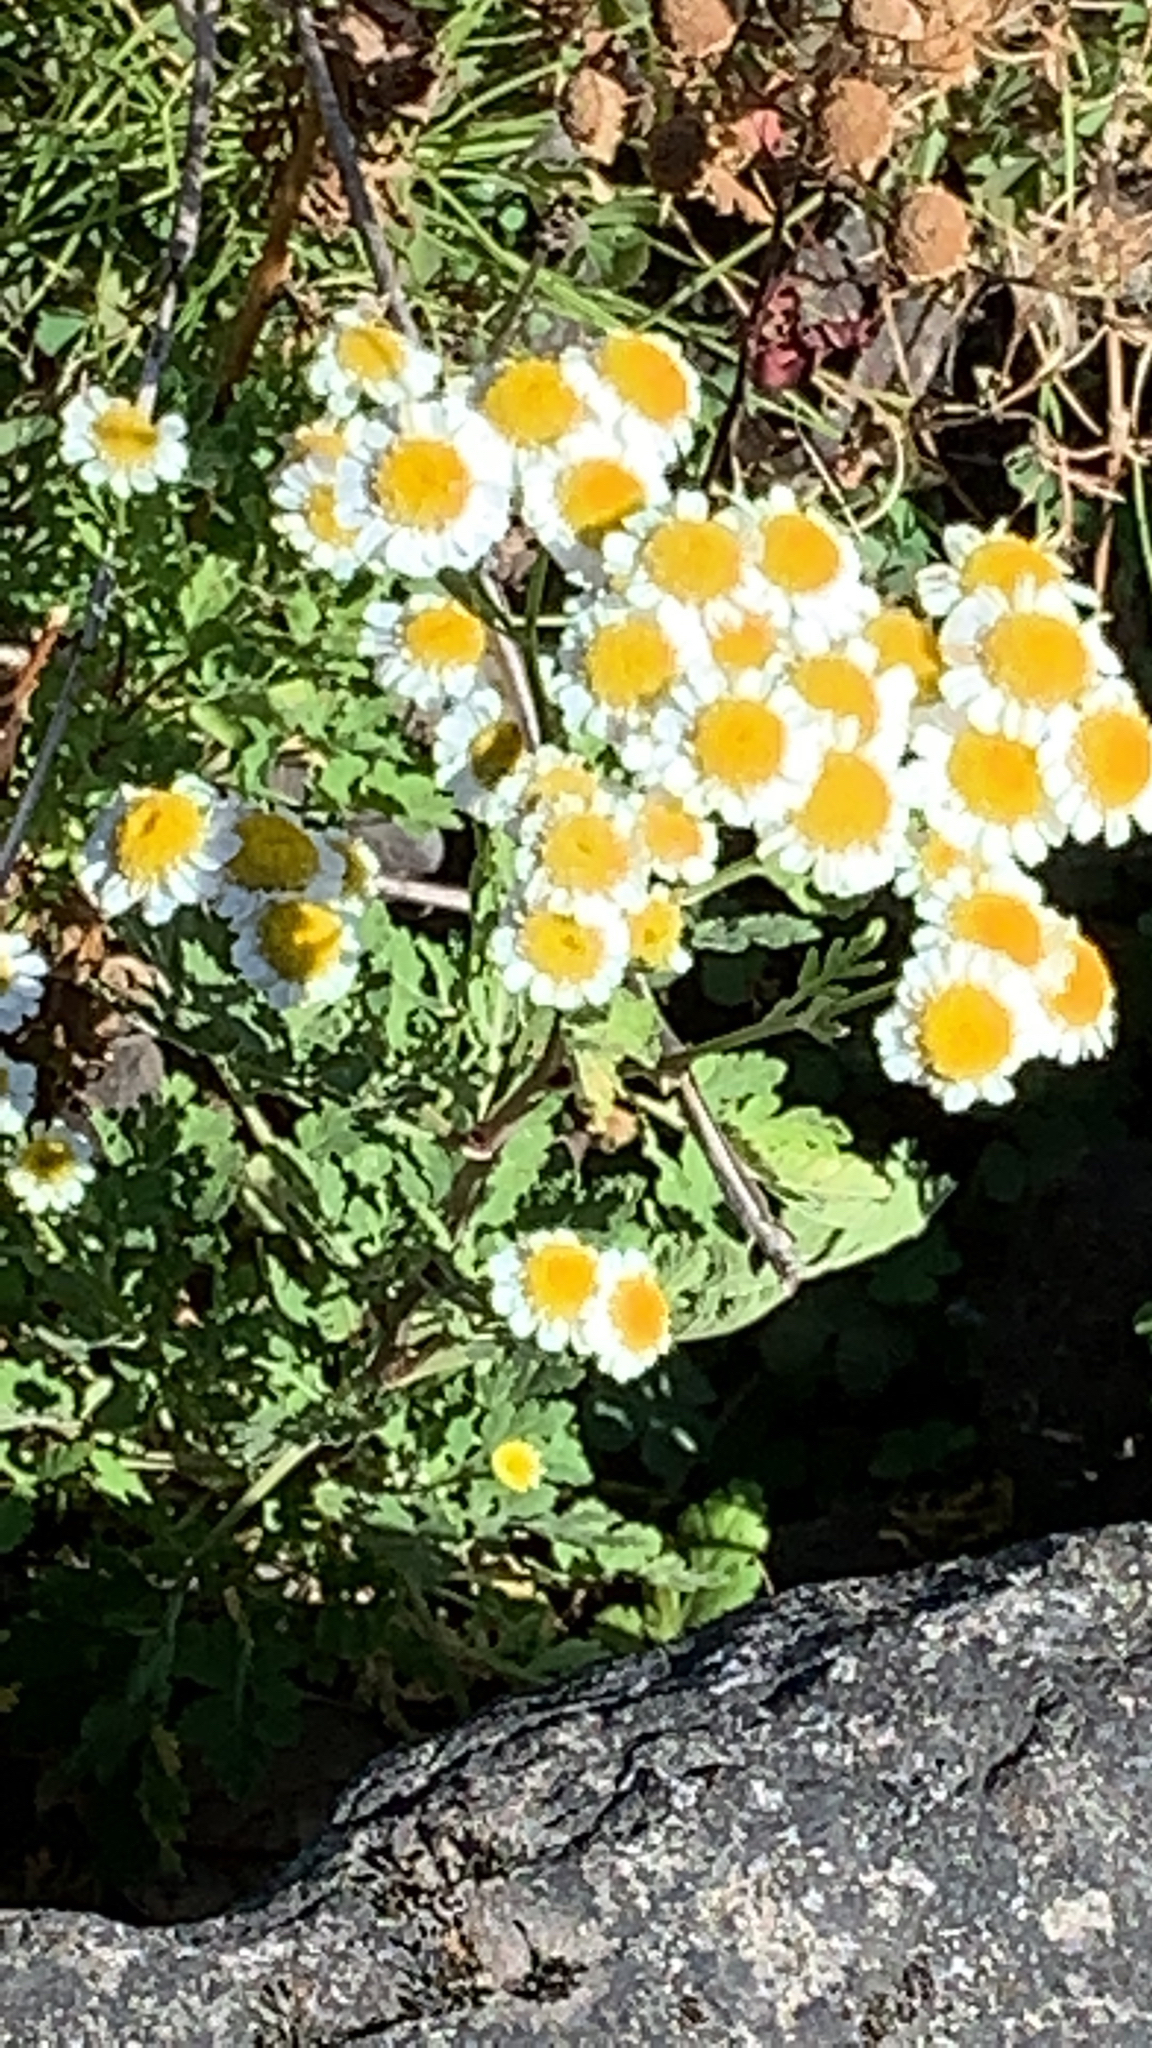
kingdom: Plantae
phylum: Tracheophyta
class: Magnoliopsida
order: Asterales
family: Asteraceae
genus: Tanacetum
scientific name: Tanacetum parthenium
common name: Feverfew
